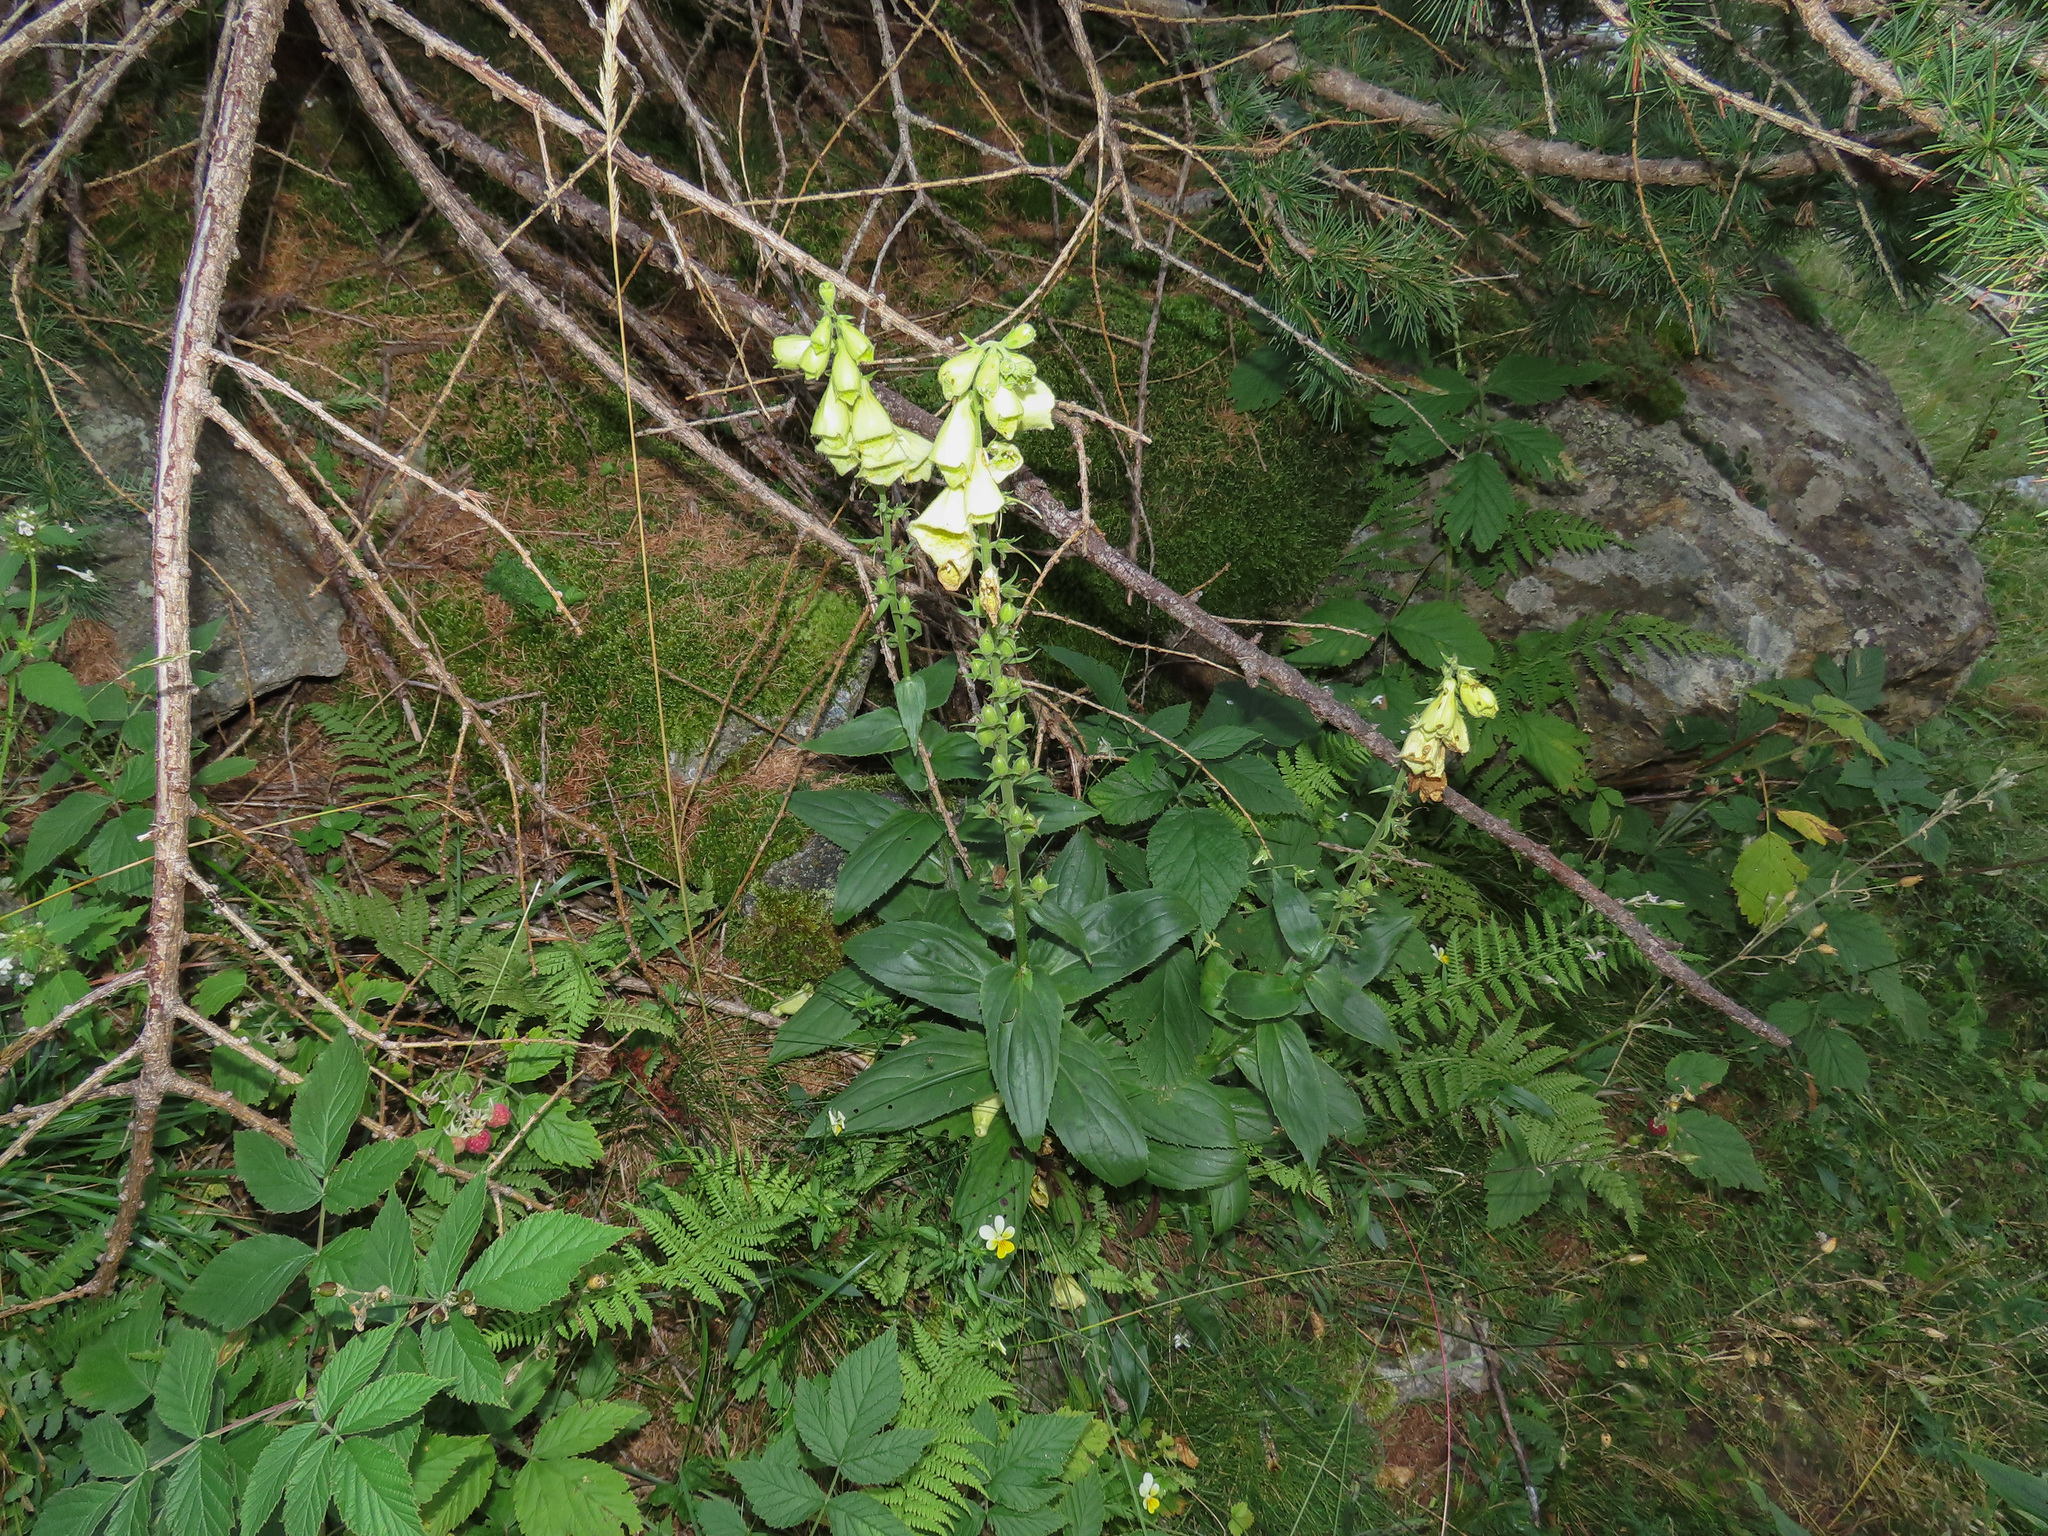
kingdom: Plantae
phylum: Tracheophyta
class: Magnoliopsida
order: Lamiales
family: Plantaginaceae
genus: Digitalis
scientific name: Digitalis grandiflora
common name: Yellow foxglove
